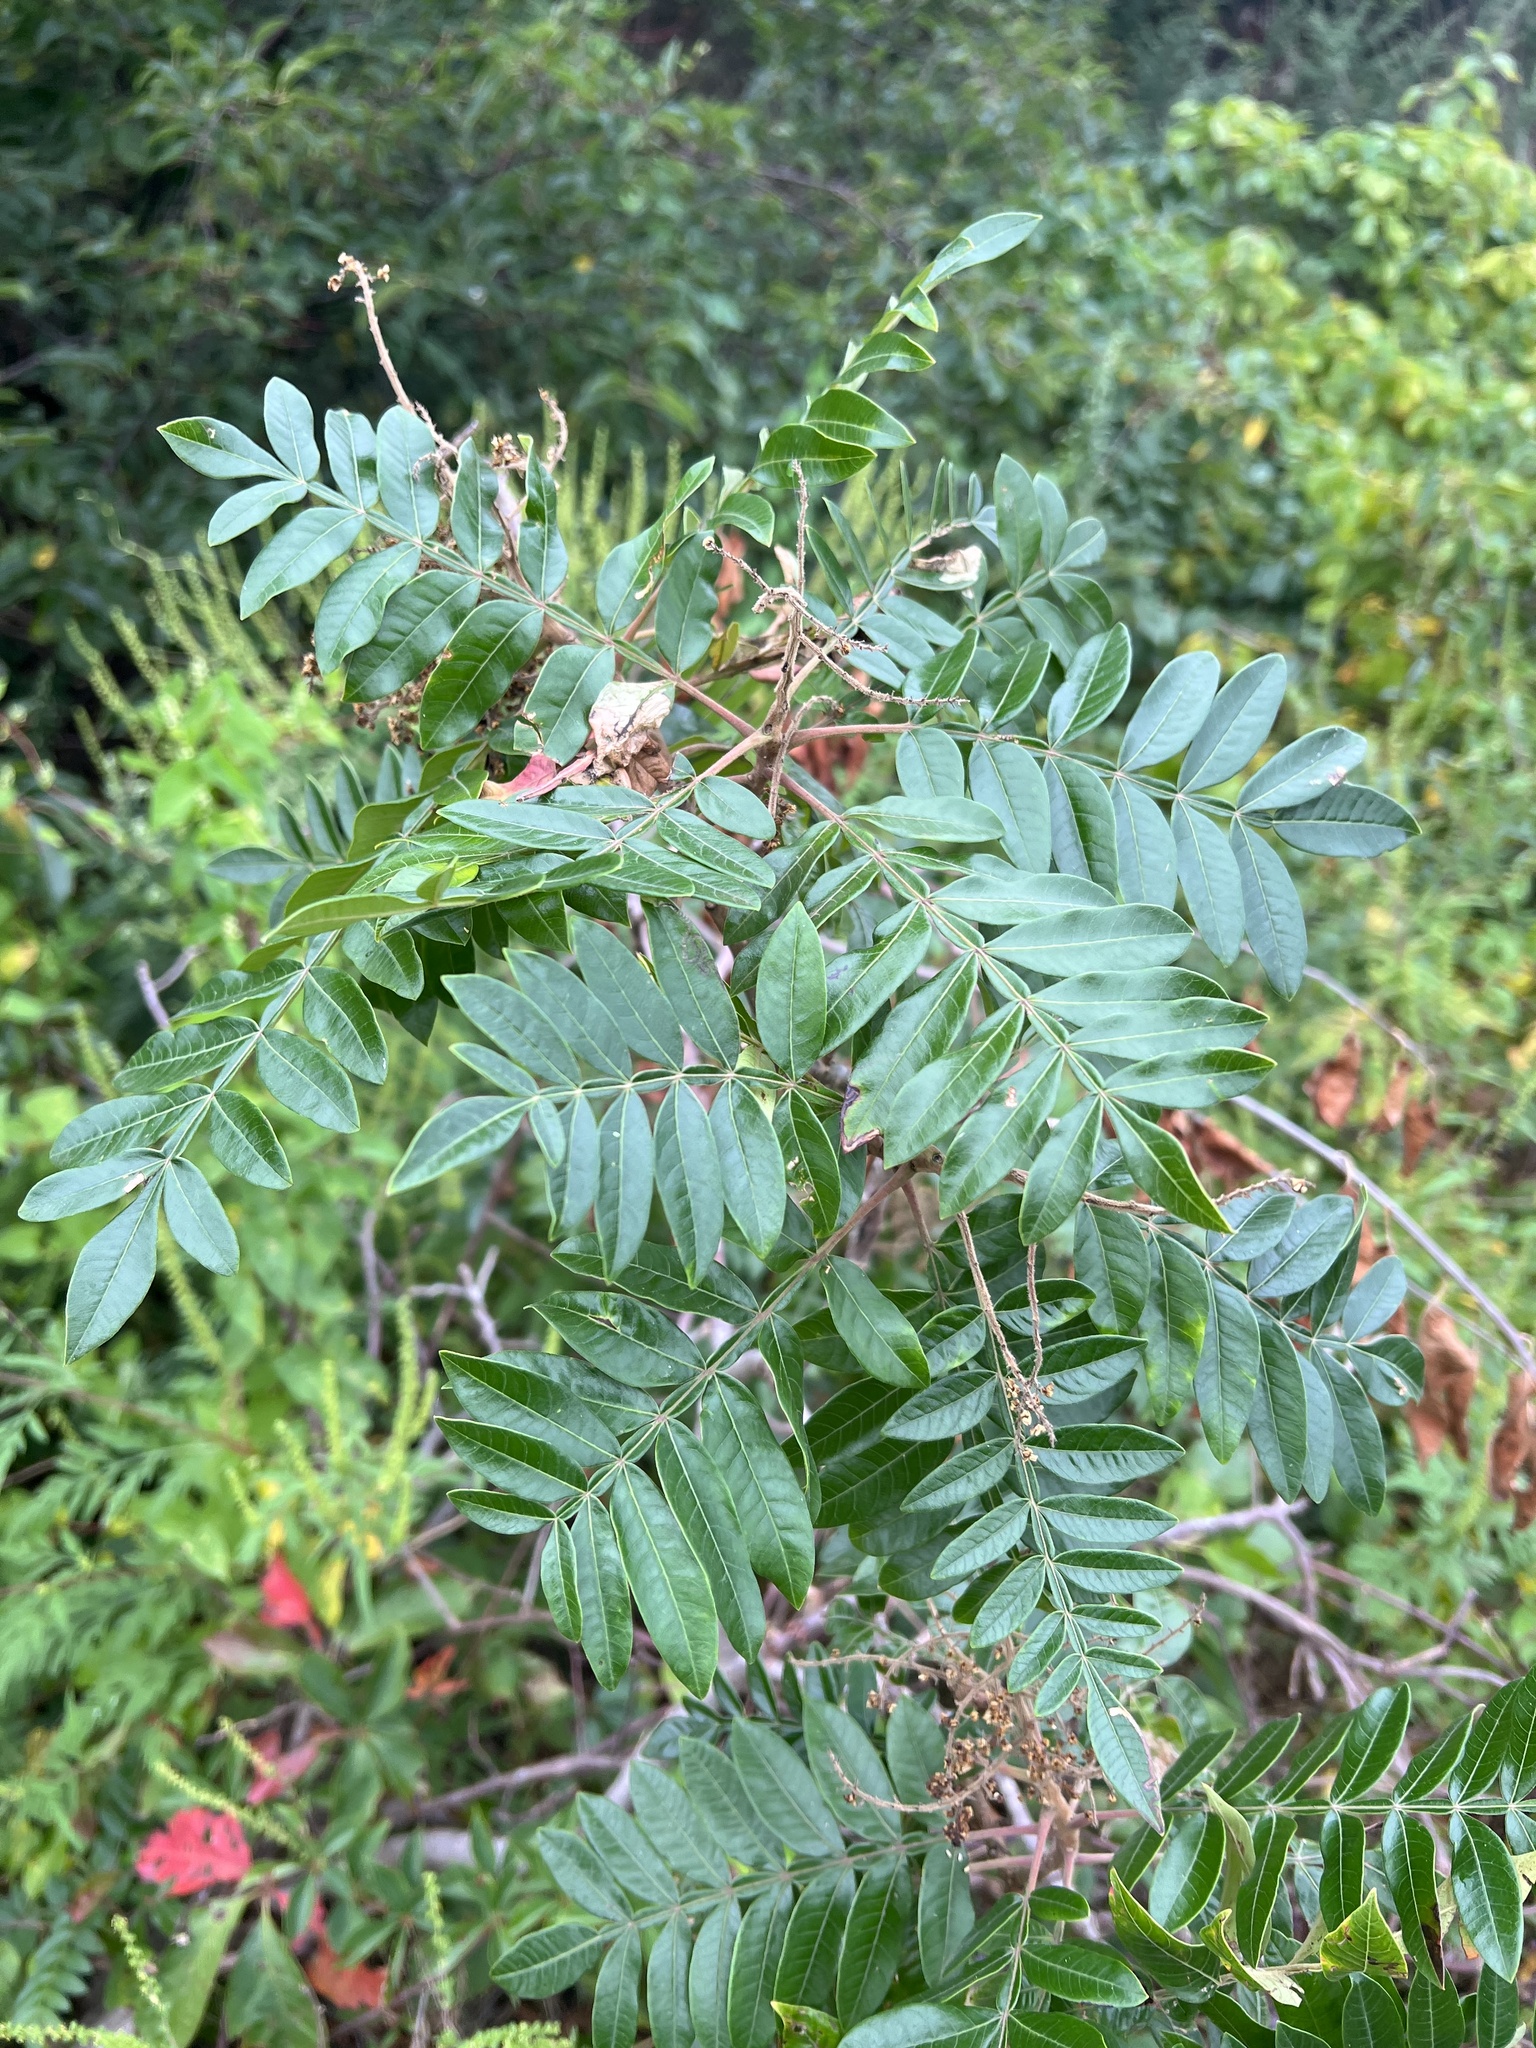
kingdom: Plantae
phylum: Tracheophyta
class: Magnoliopsida
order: Sapindales
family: Anacardiaceae
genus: Rhus
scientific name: Rhus copallina
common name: Shining sumac
